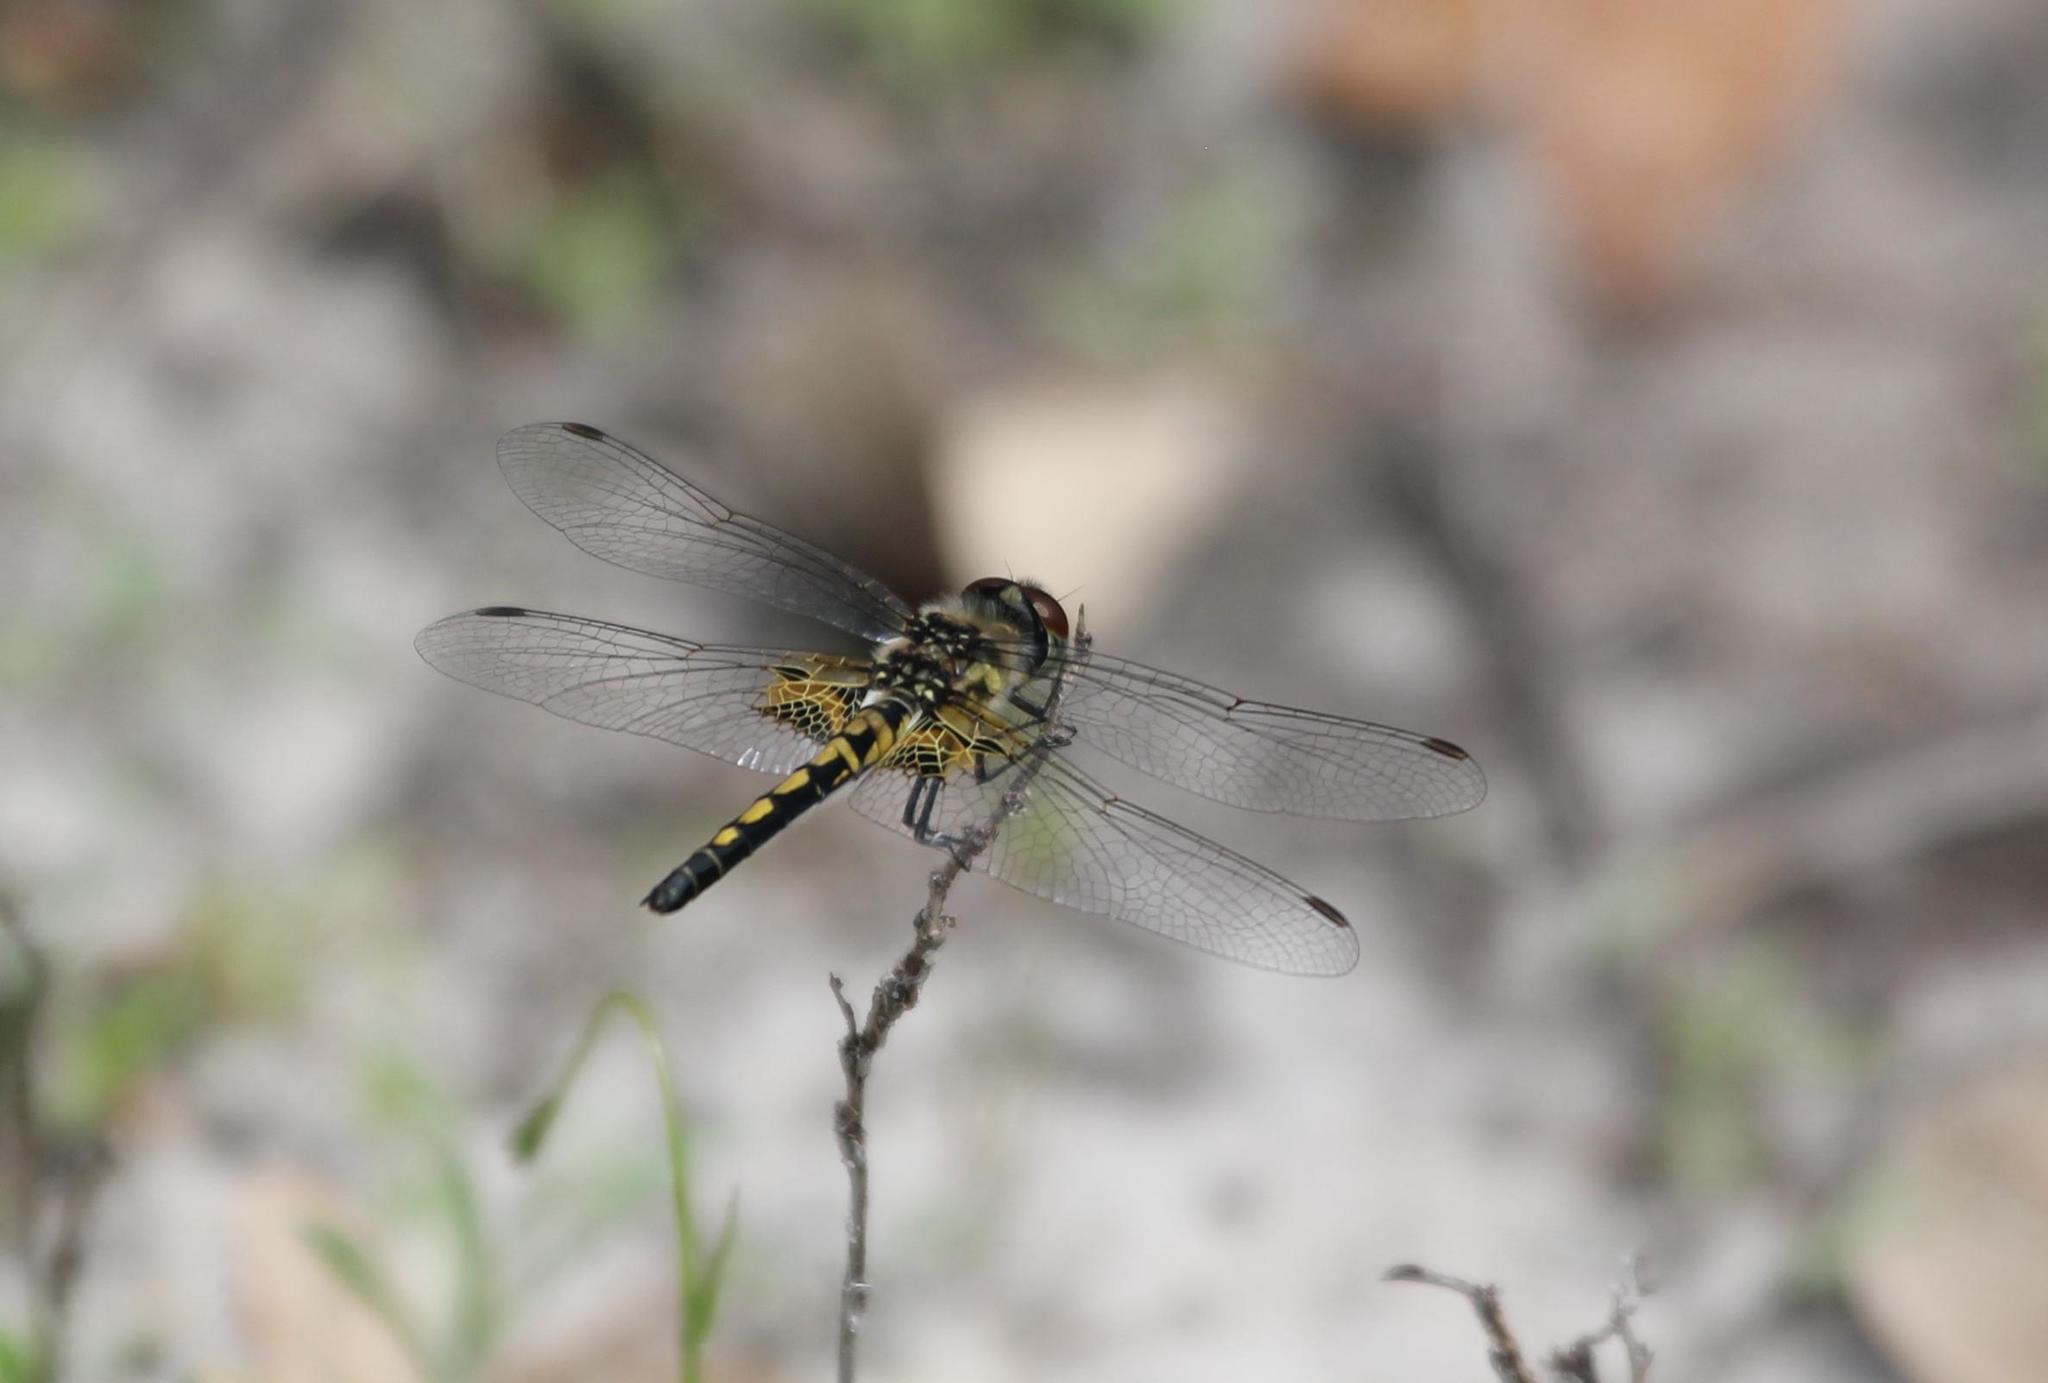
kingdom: Animalia
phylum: Arthropoda
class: Insecta
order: Odonata
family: Libellulidae
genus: Celithemis
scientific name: Celithemis ornata
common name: Ornate pennant
